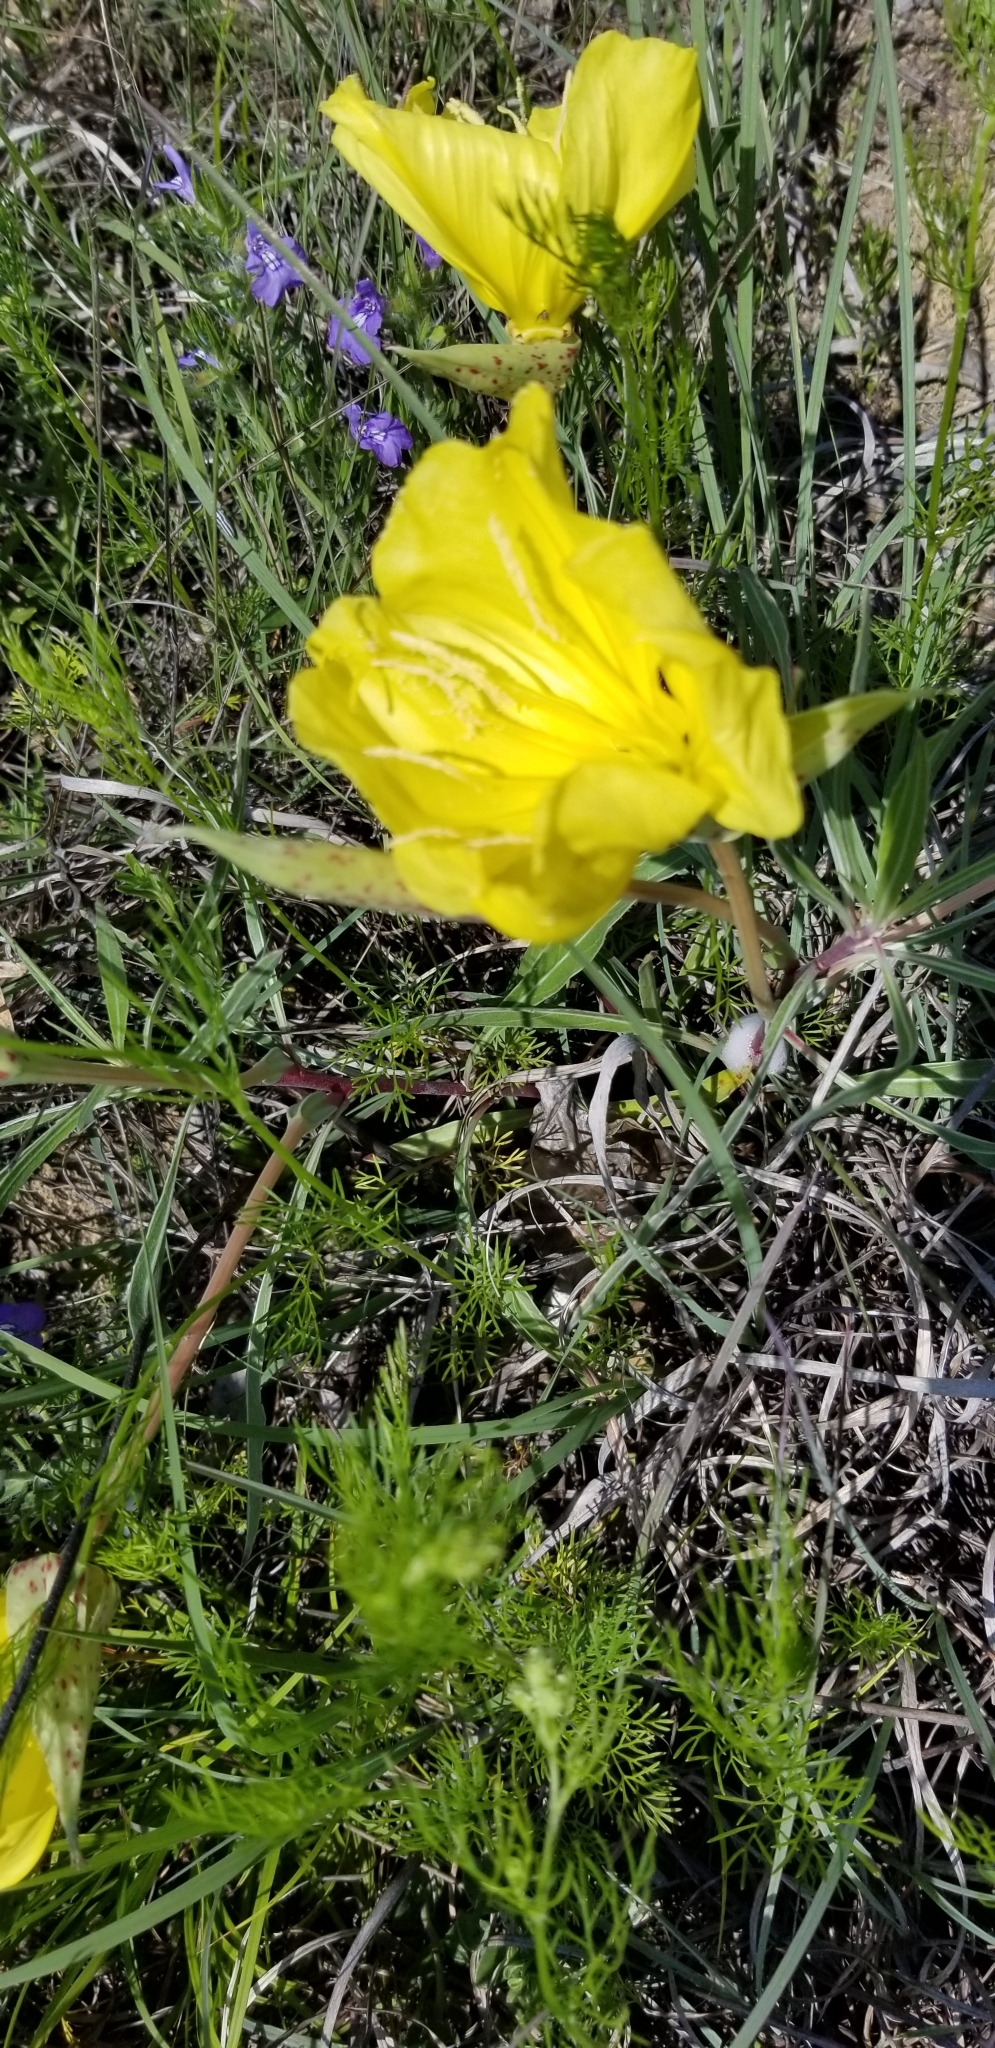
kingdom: Plantae
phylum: Tracheophyta
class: Magnoliopsida
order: Myrtales
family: Onagraceae
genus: Oenothera
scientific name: Oenothera macrocarpa
